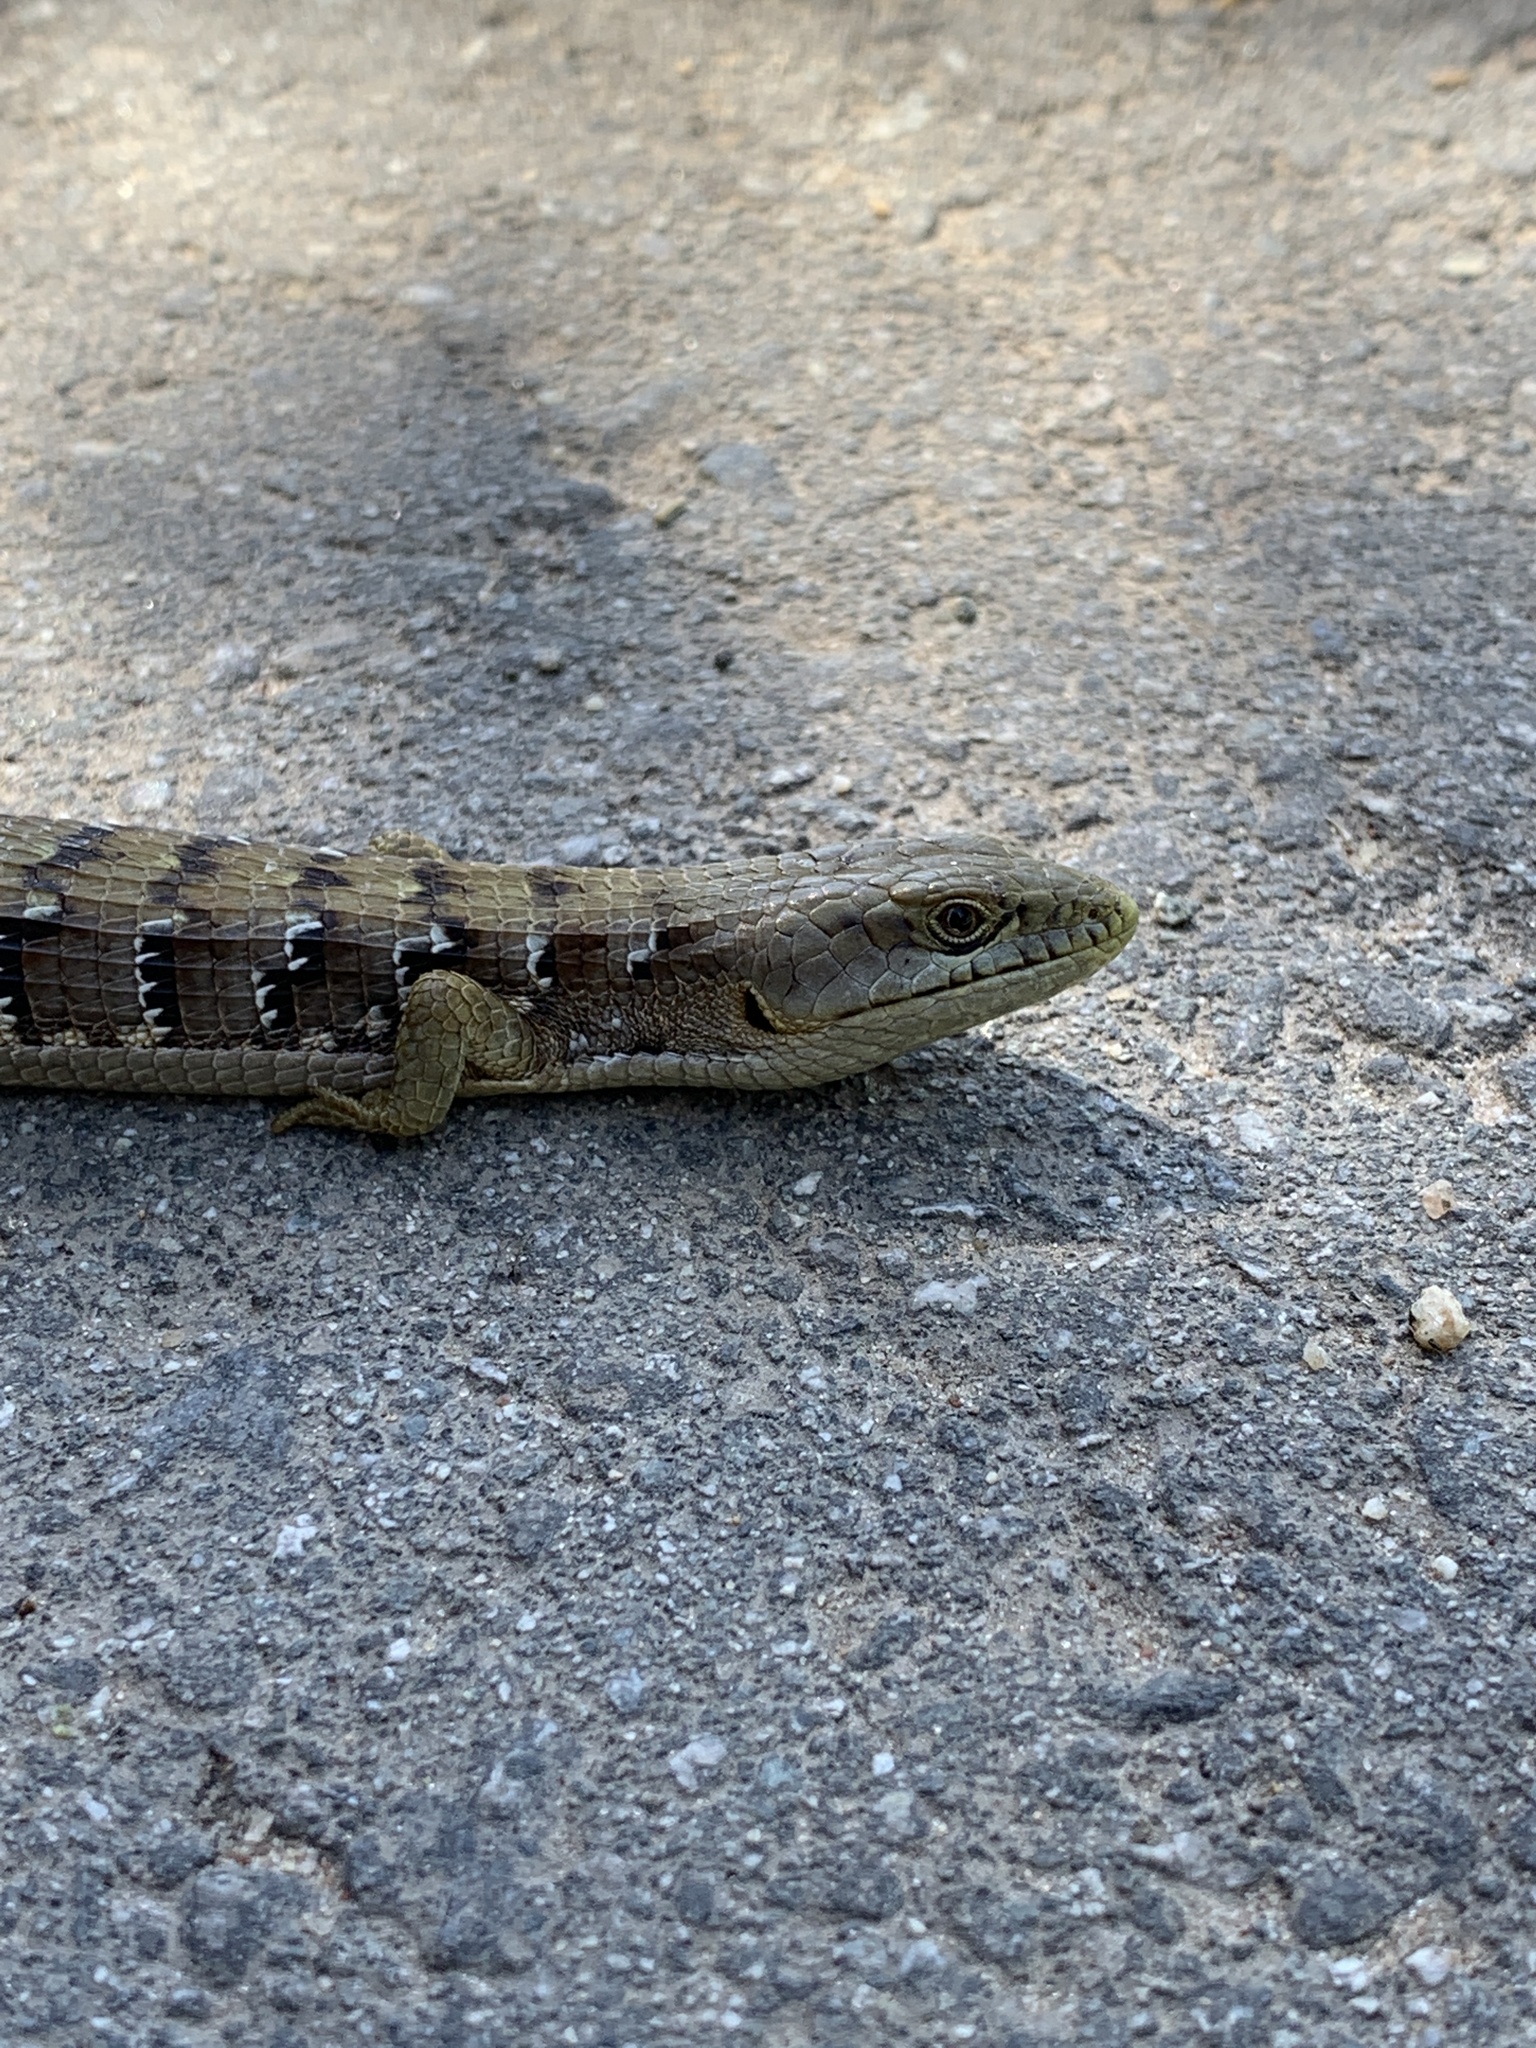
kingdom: Animalia
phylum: Chordata
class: Squamata
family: Anguidae
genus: Elgaria
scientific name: Elgaria multicarinata
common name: Southern alligator lizard
